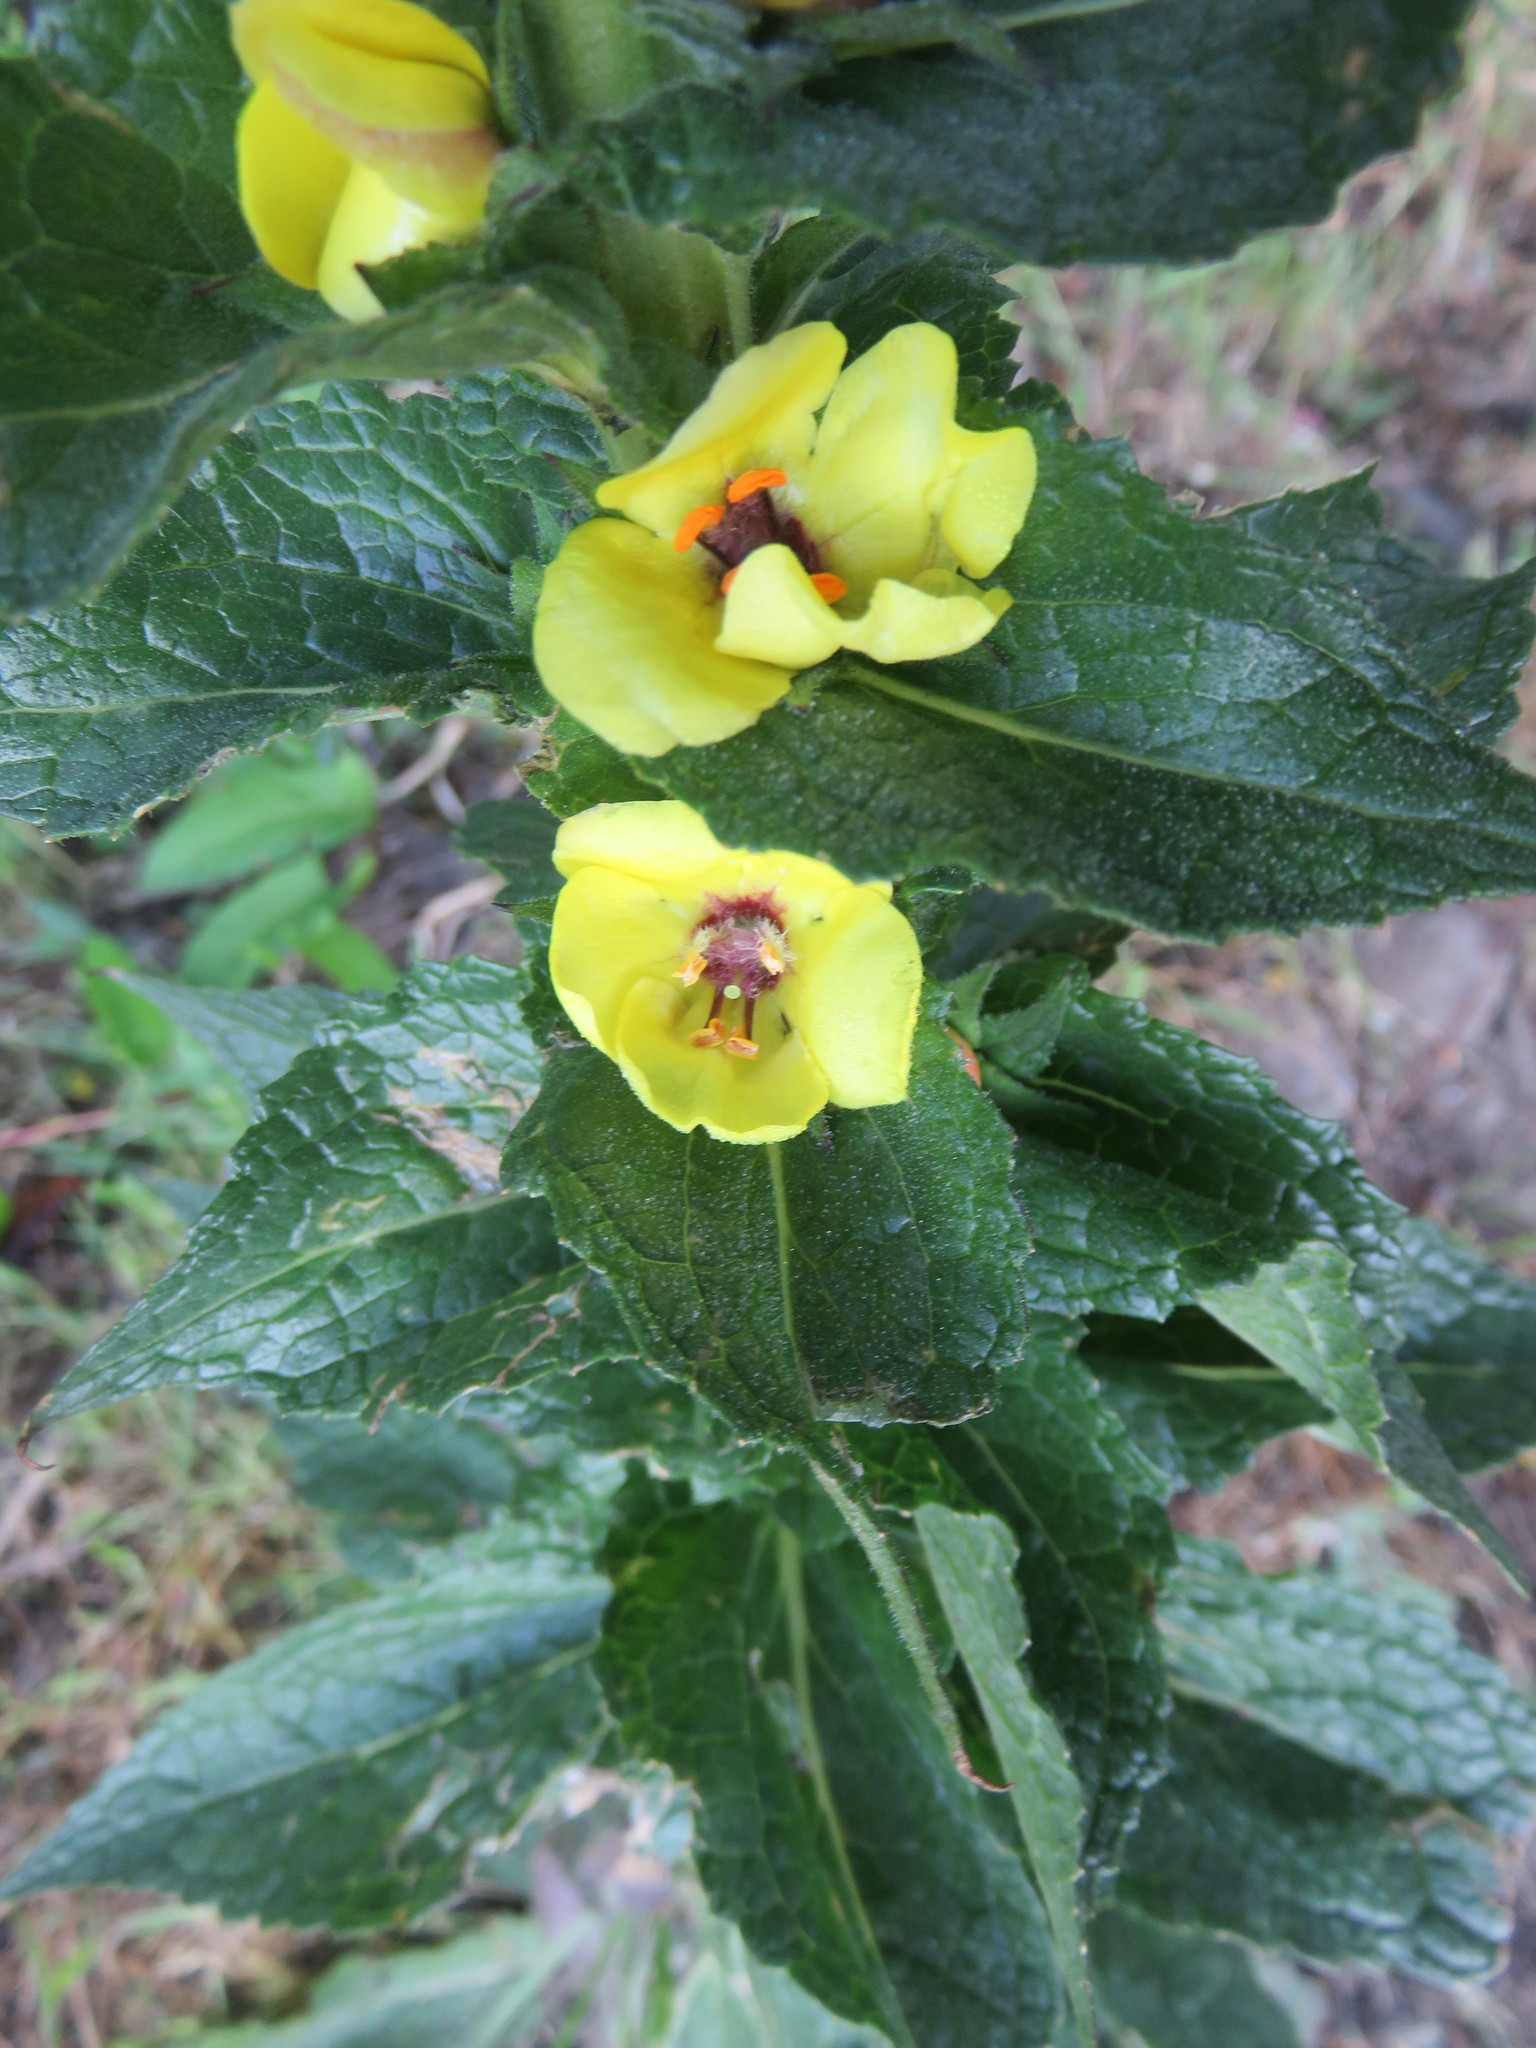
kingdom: Plantae
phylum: Tracheophyta
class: Magnoliopsida
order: Lamiales
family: Scrophulariaceae
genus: Verbascum
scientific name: Verbascum virgatum
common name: Twiggy mullein
